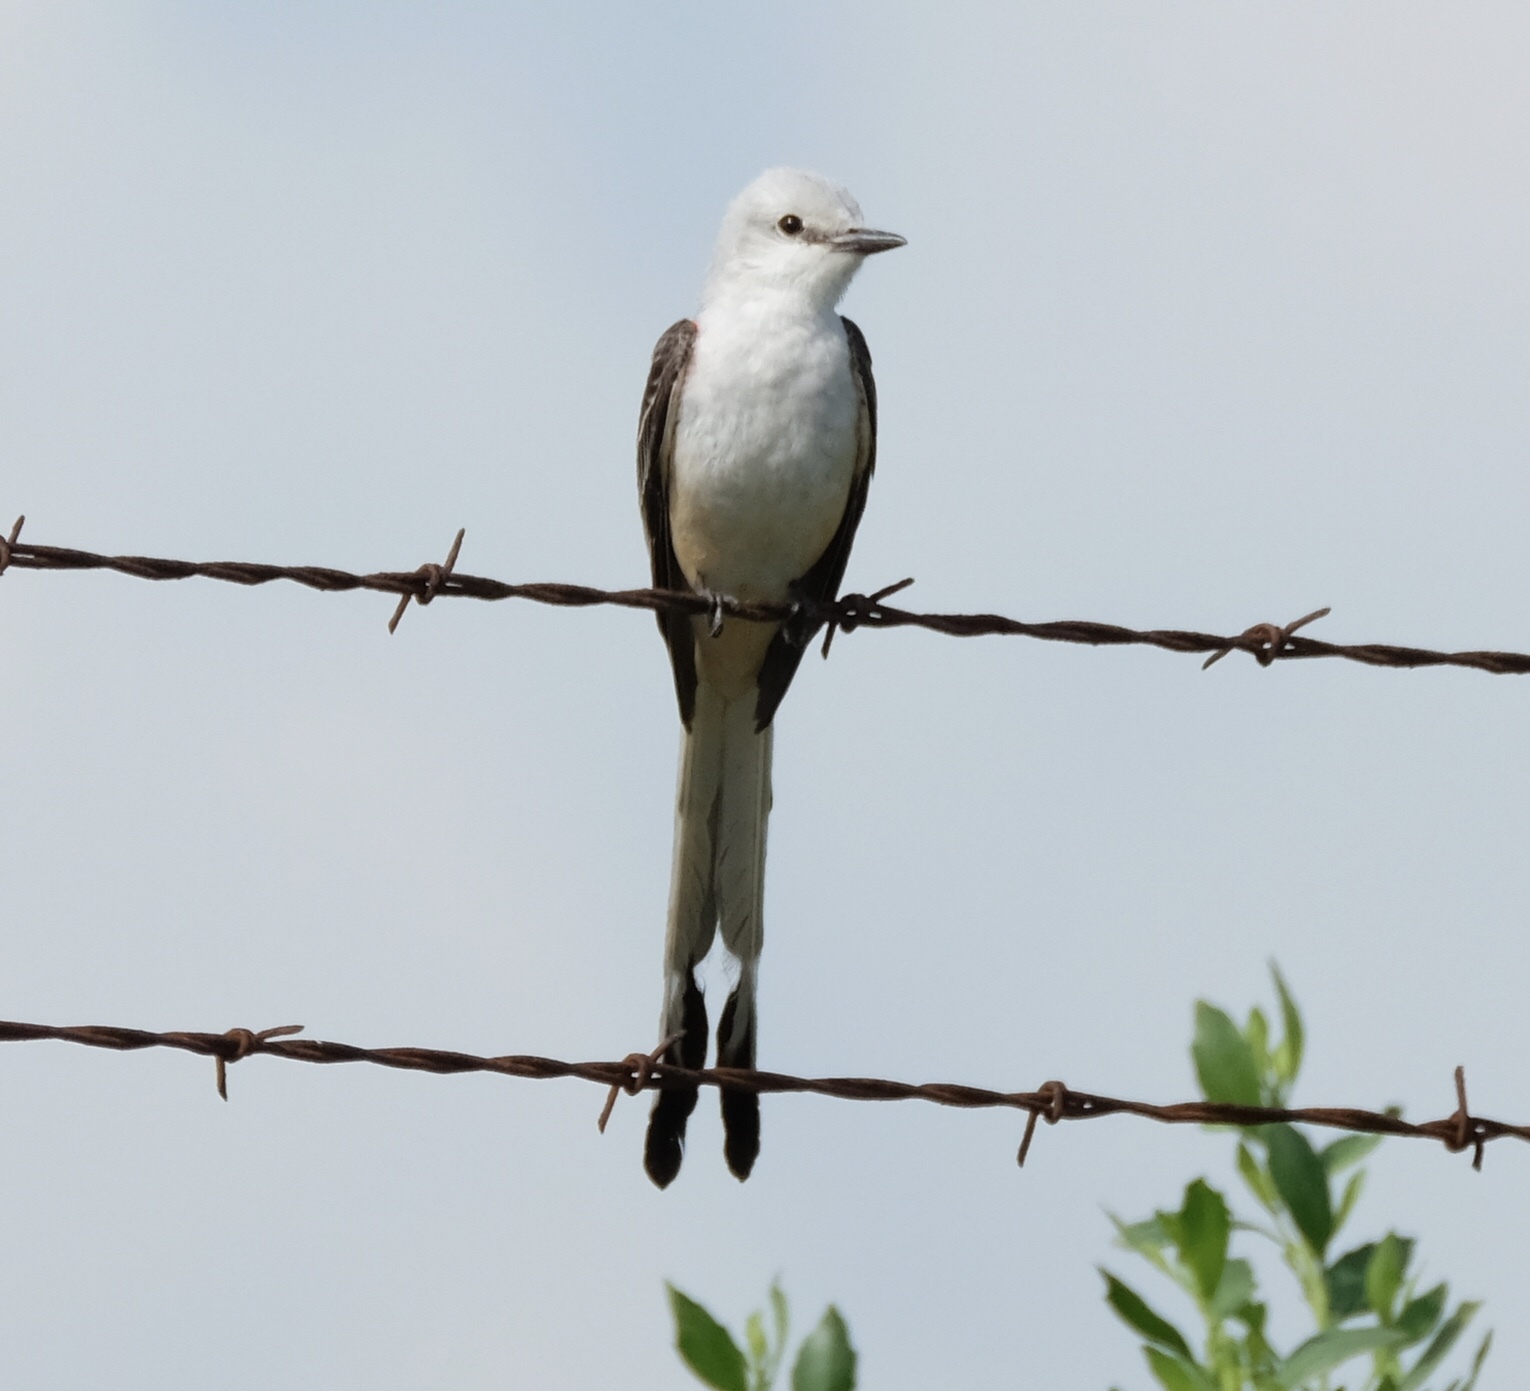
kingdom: Animalia
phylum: Chordata
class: Aves
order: Passeriformes
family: Tyrannidae
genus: Tyrannus
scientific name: Tyrannus forficatus
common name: Scissor-tailed flycatcher
